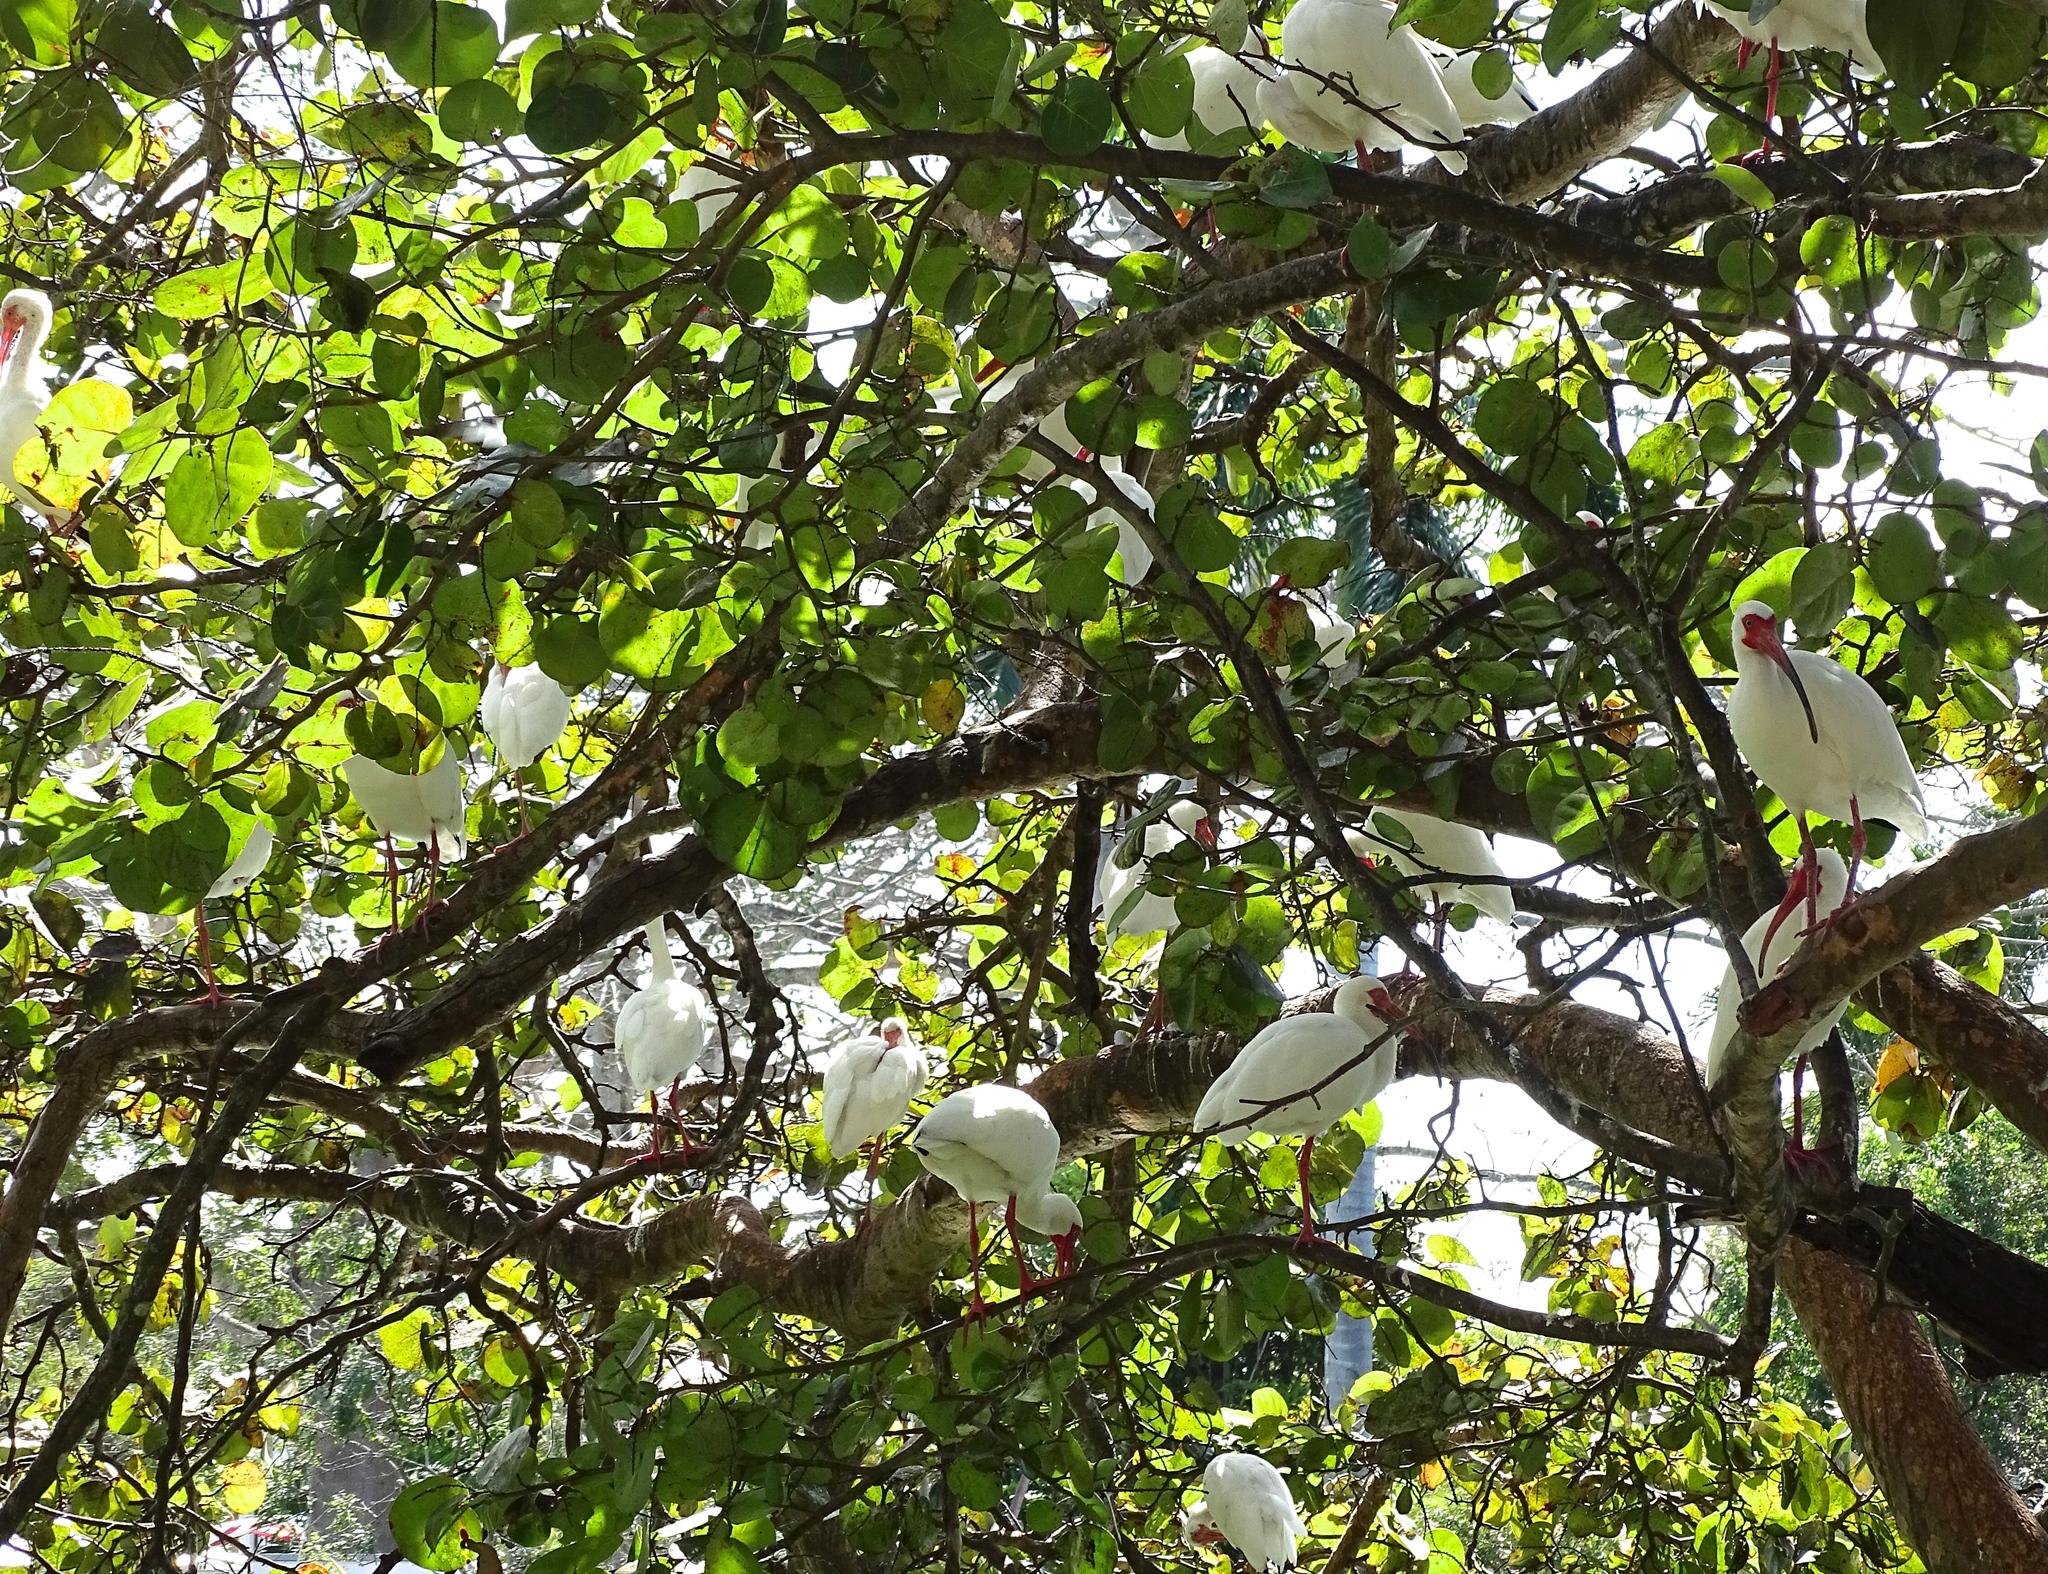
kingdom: Animalia
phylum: Chordata
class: Aves
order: Pelecaniformes
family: Threskiornithidae
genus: Eudocimus
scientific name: Eudocimus albus
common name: White ibis
